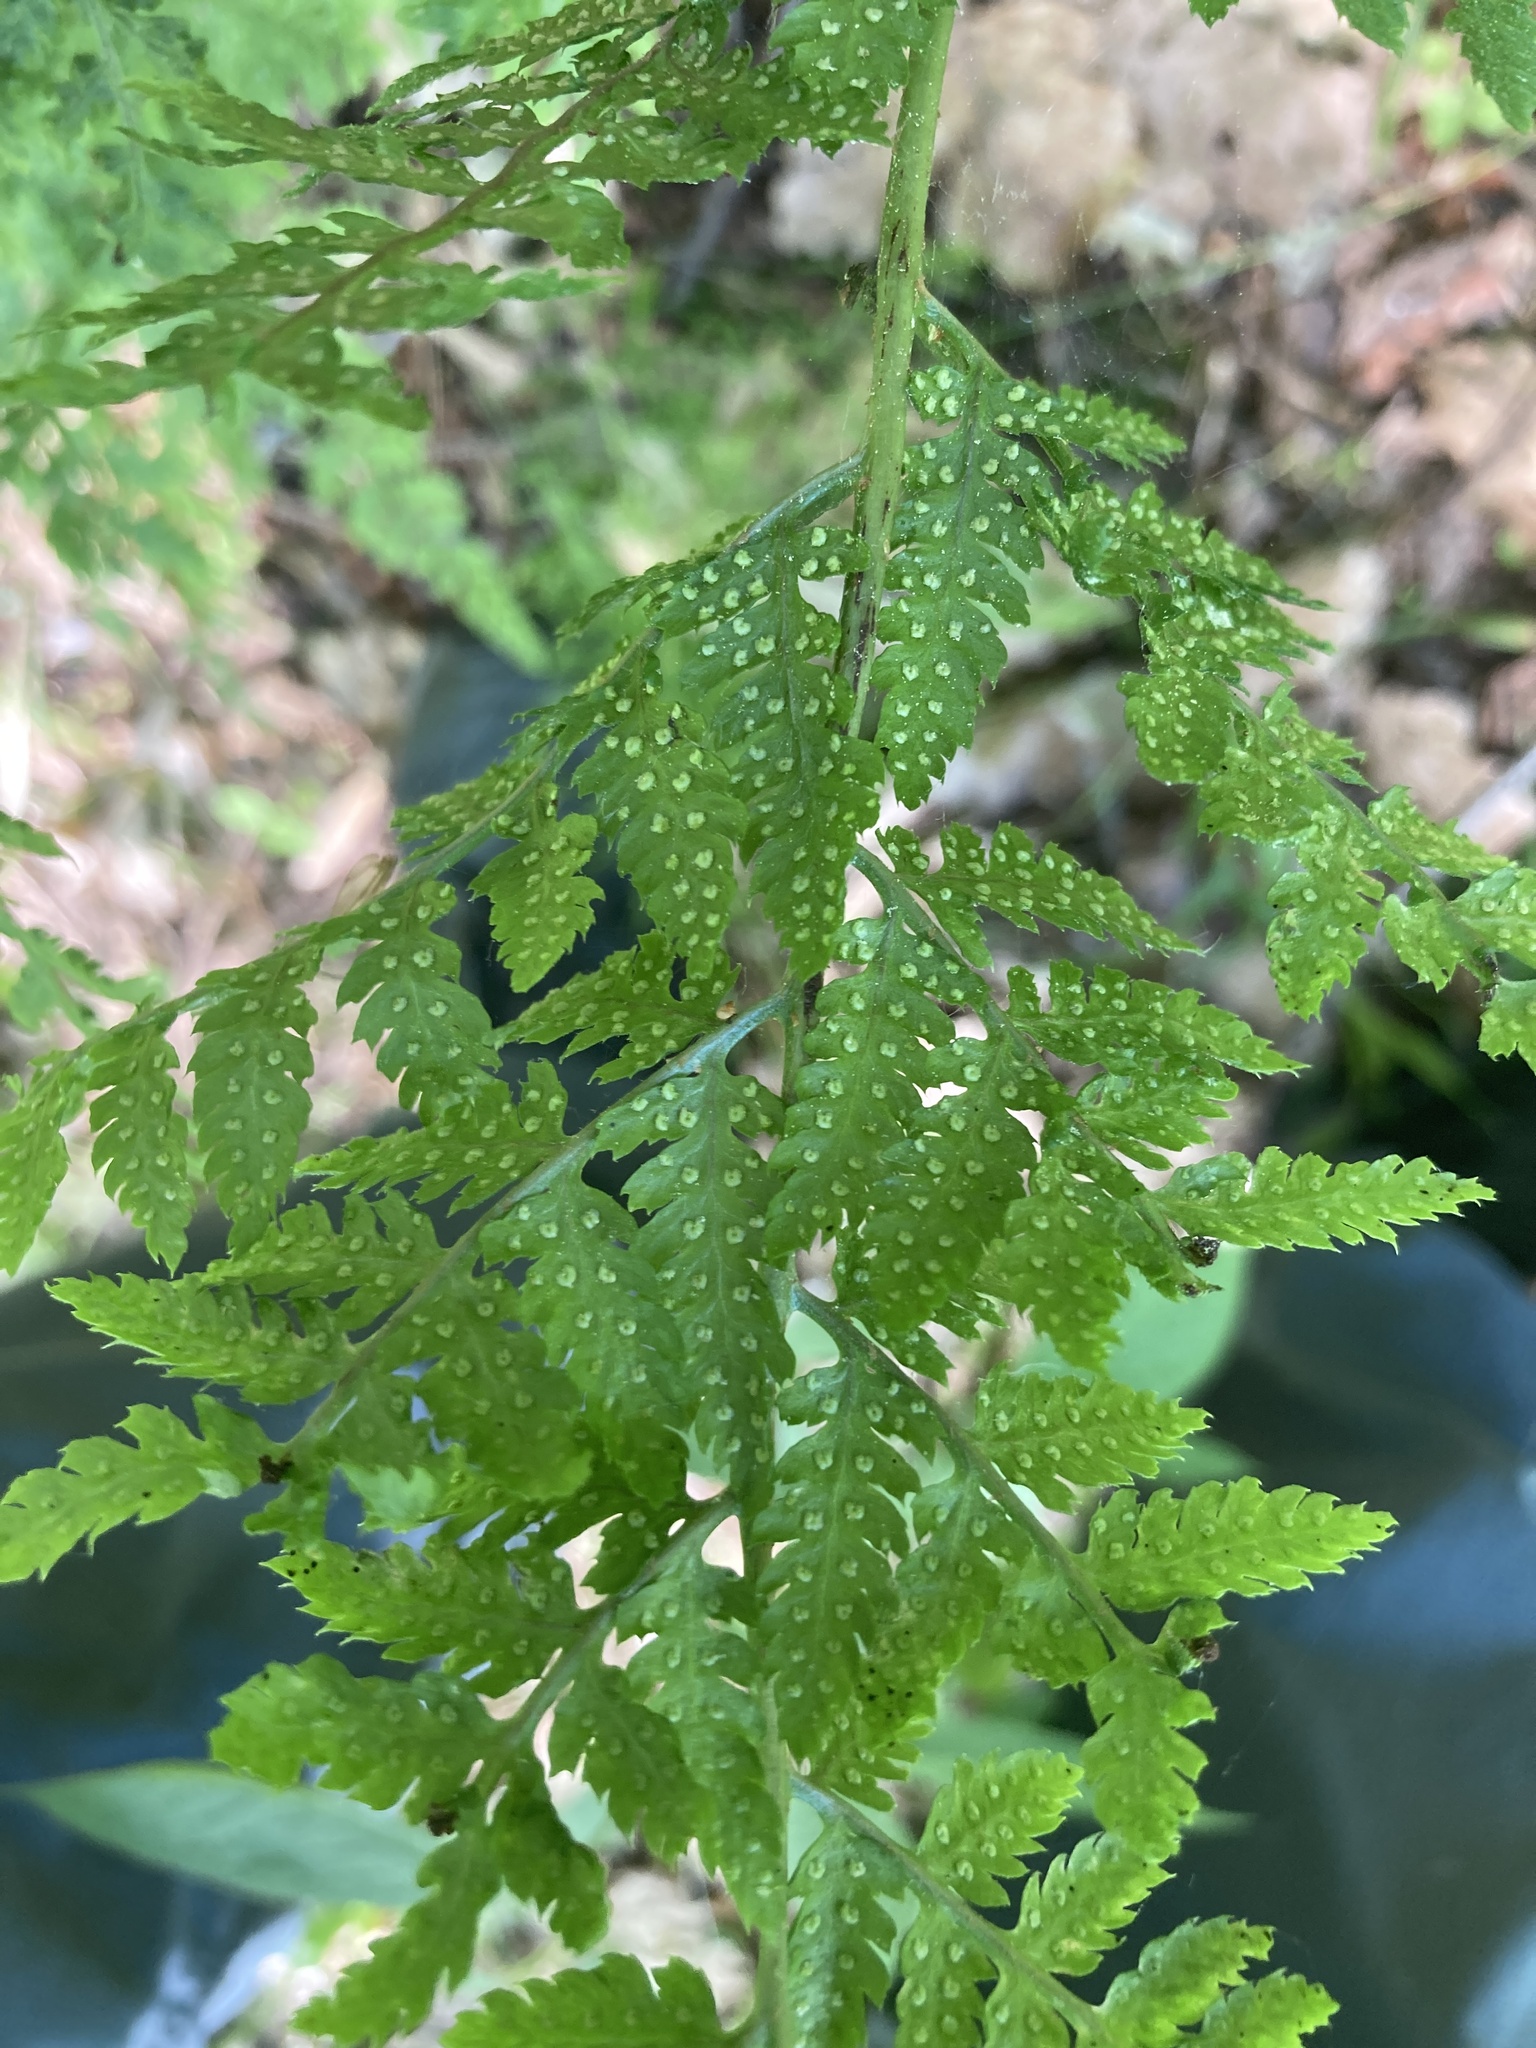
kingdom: Plantae
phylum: Tracheophyta
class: Polypodiopsida
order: Polypodiales
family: Dryopteridaceae
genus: Dryopteris
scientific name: Dryopteris carthusiana
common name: Narrow buckler-fern
